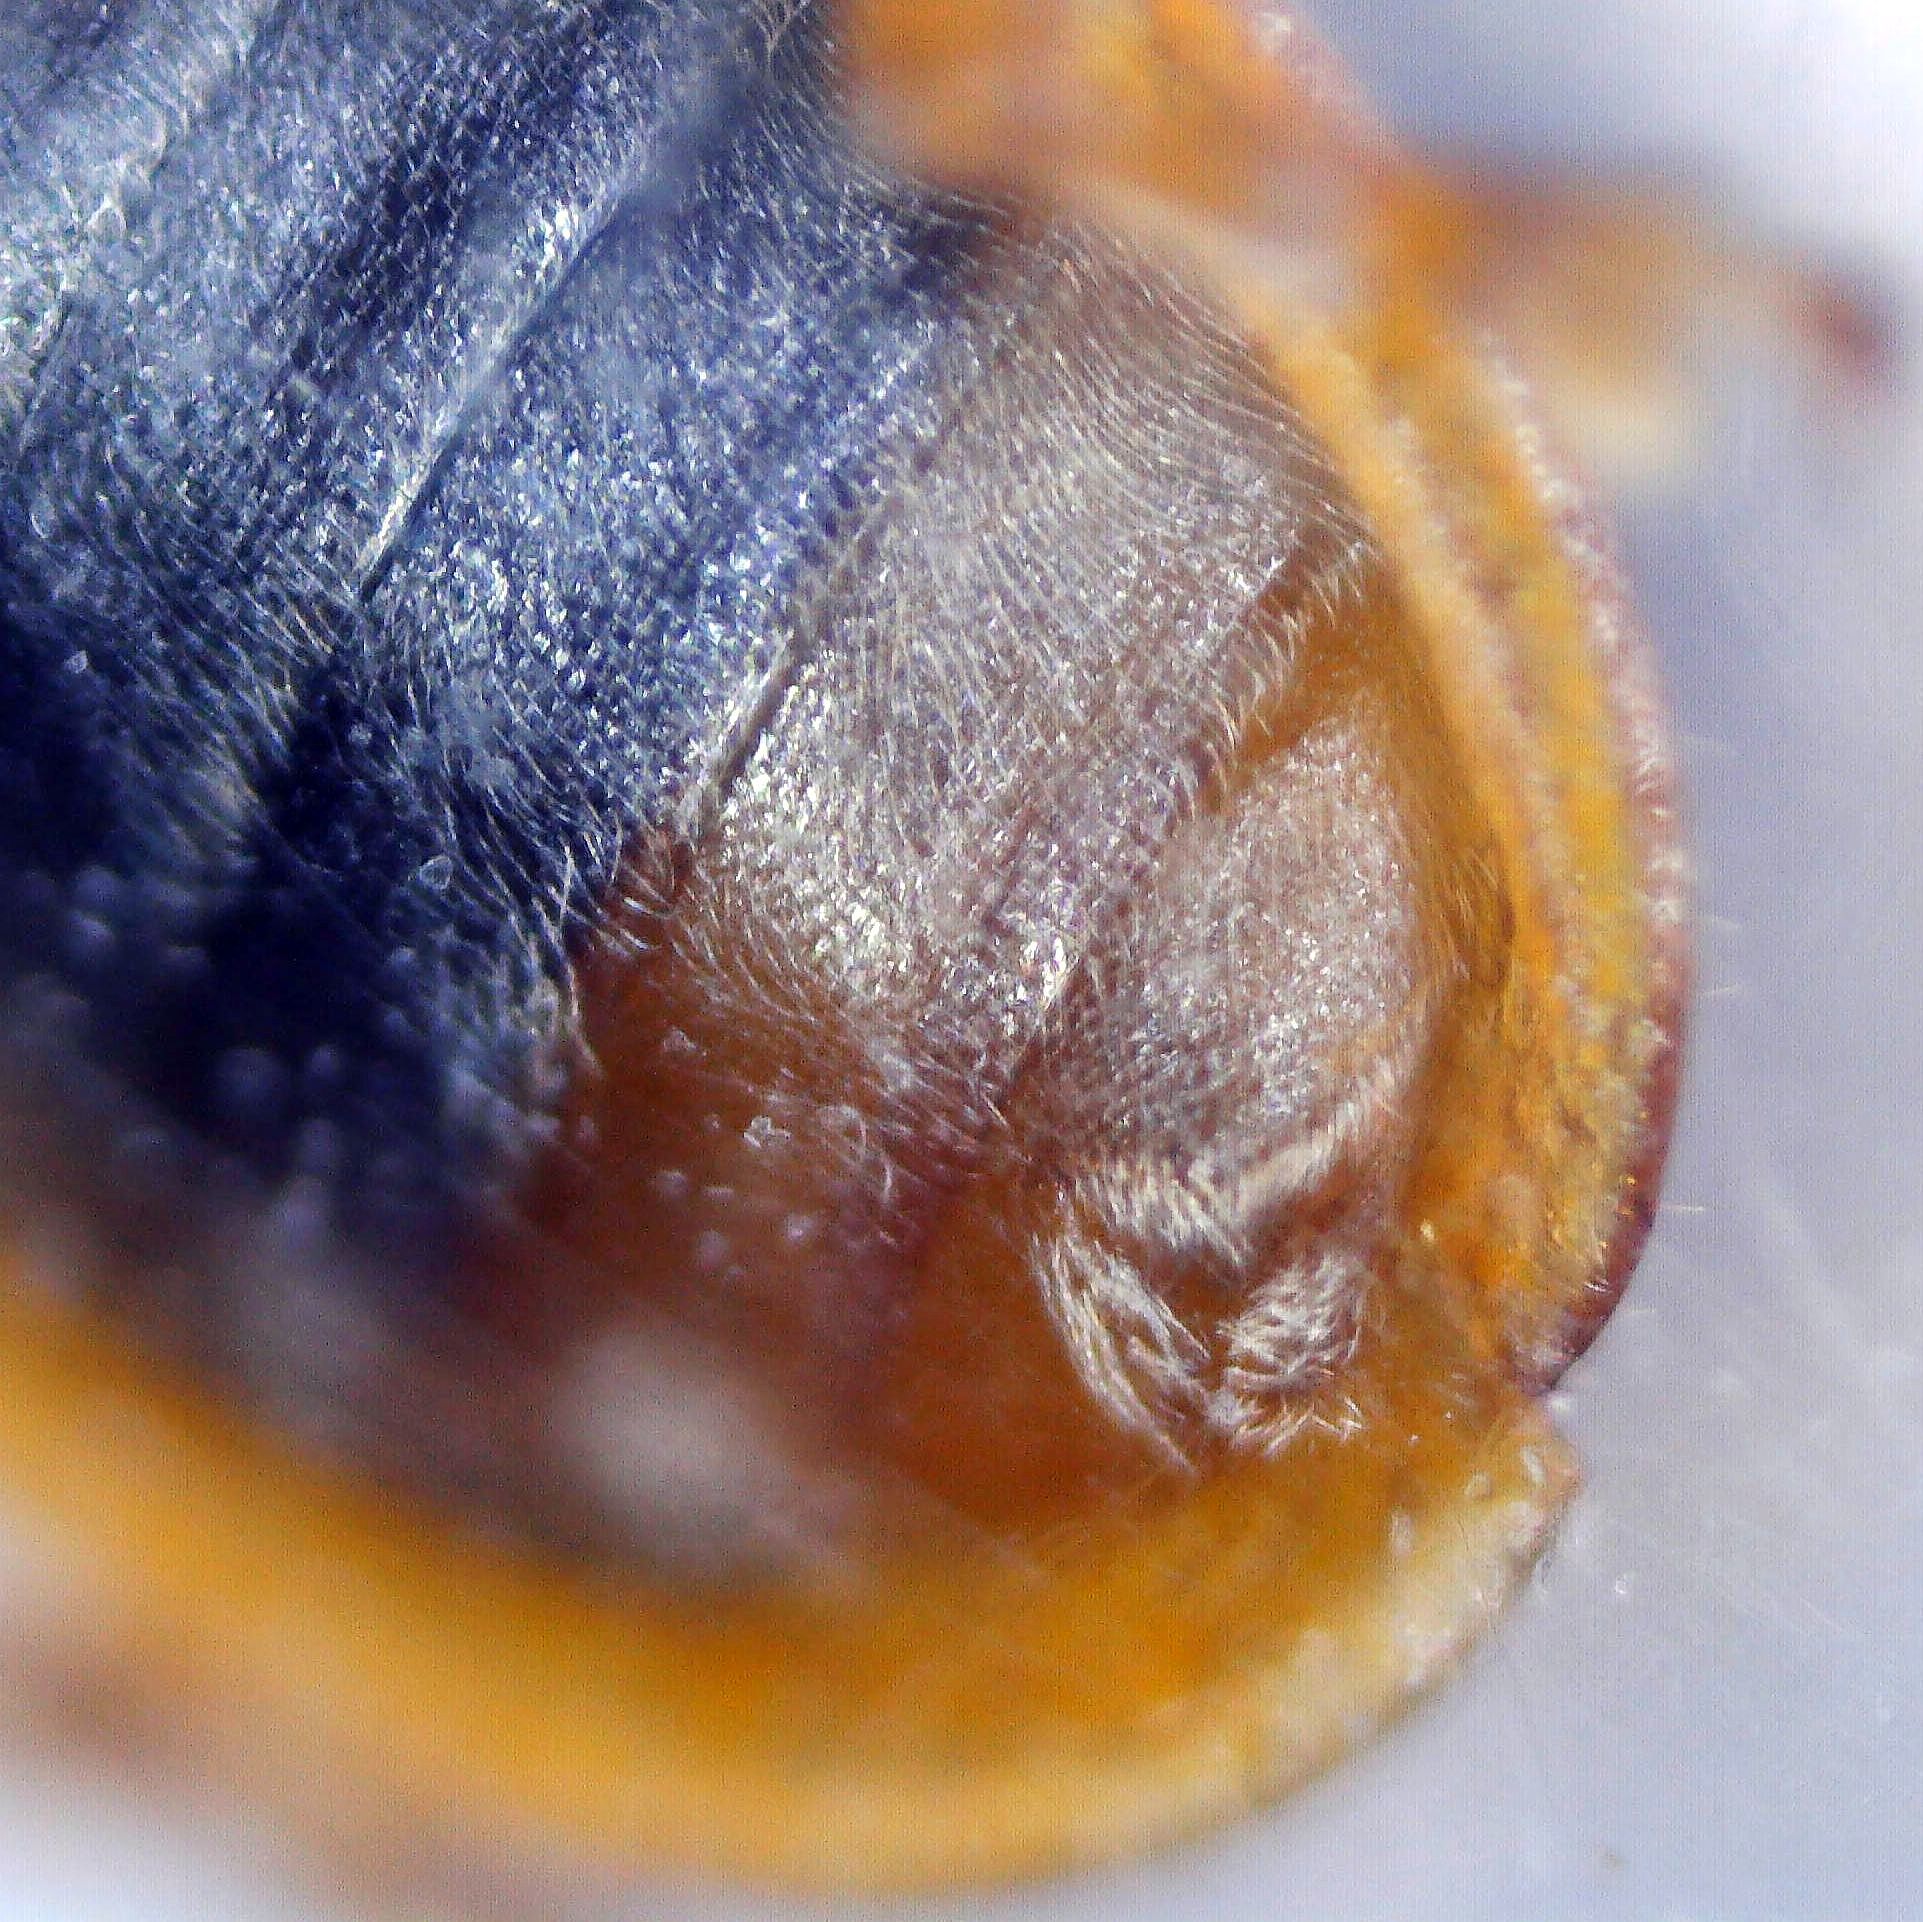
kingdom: Animalia
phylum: Arthropoda
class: Insecta
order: Coleoptera
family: Chrysomelidae
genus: Neogalerucella
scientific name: Neogalerucella calmariensis
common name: Black-margined loosestrife beetle
